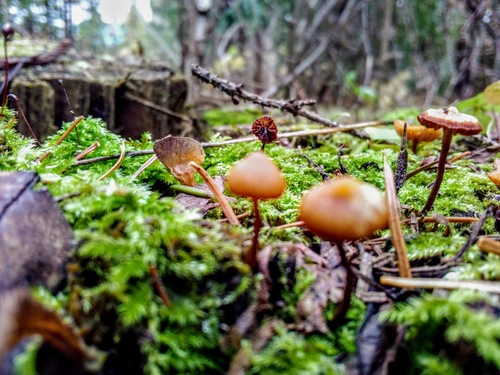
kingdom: Fungi
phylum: Basidiomycota
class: Agaricomycetes
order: Agaricales
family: Hymenogastraceae
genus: Galerina
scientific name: Galerina marginata
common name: Funeral bell
